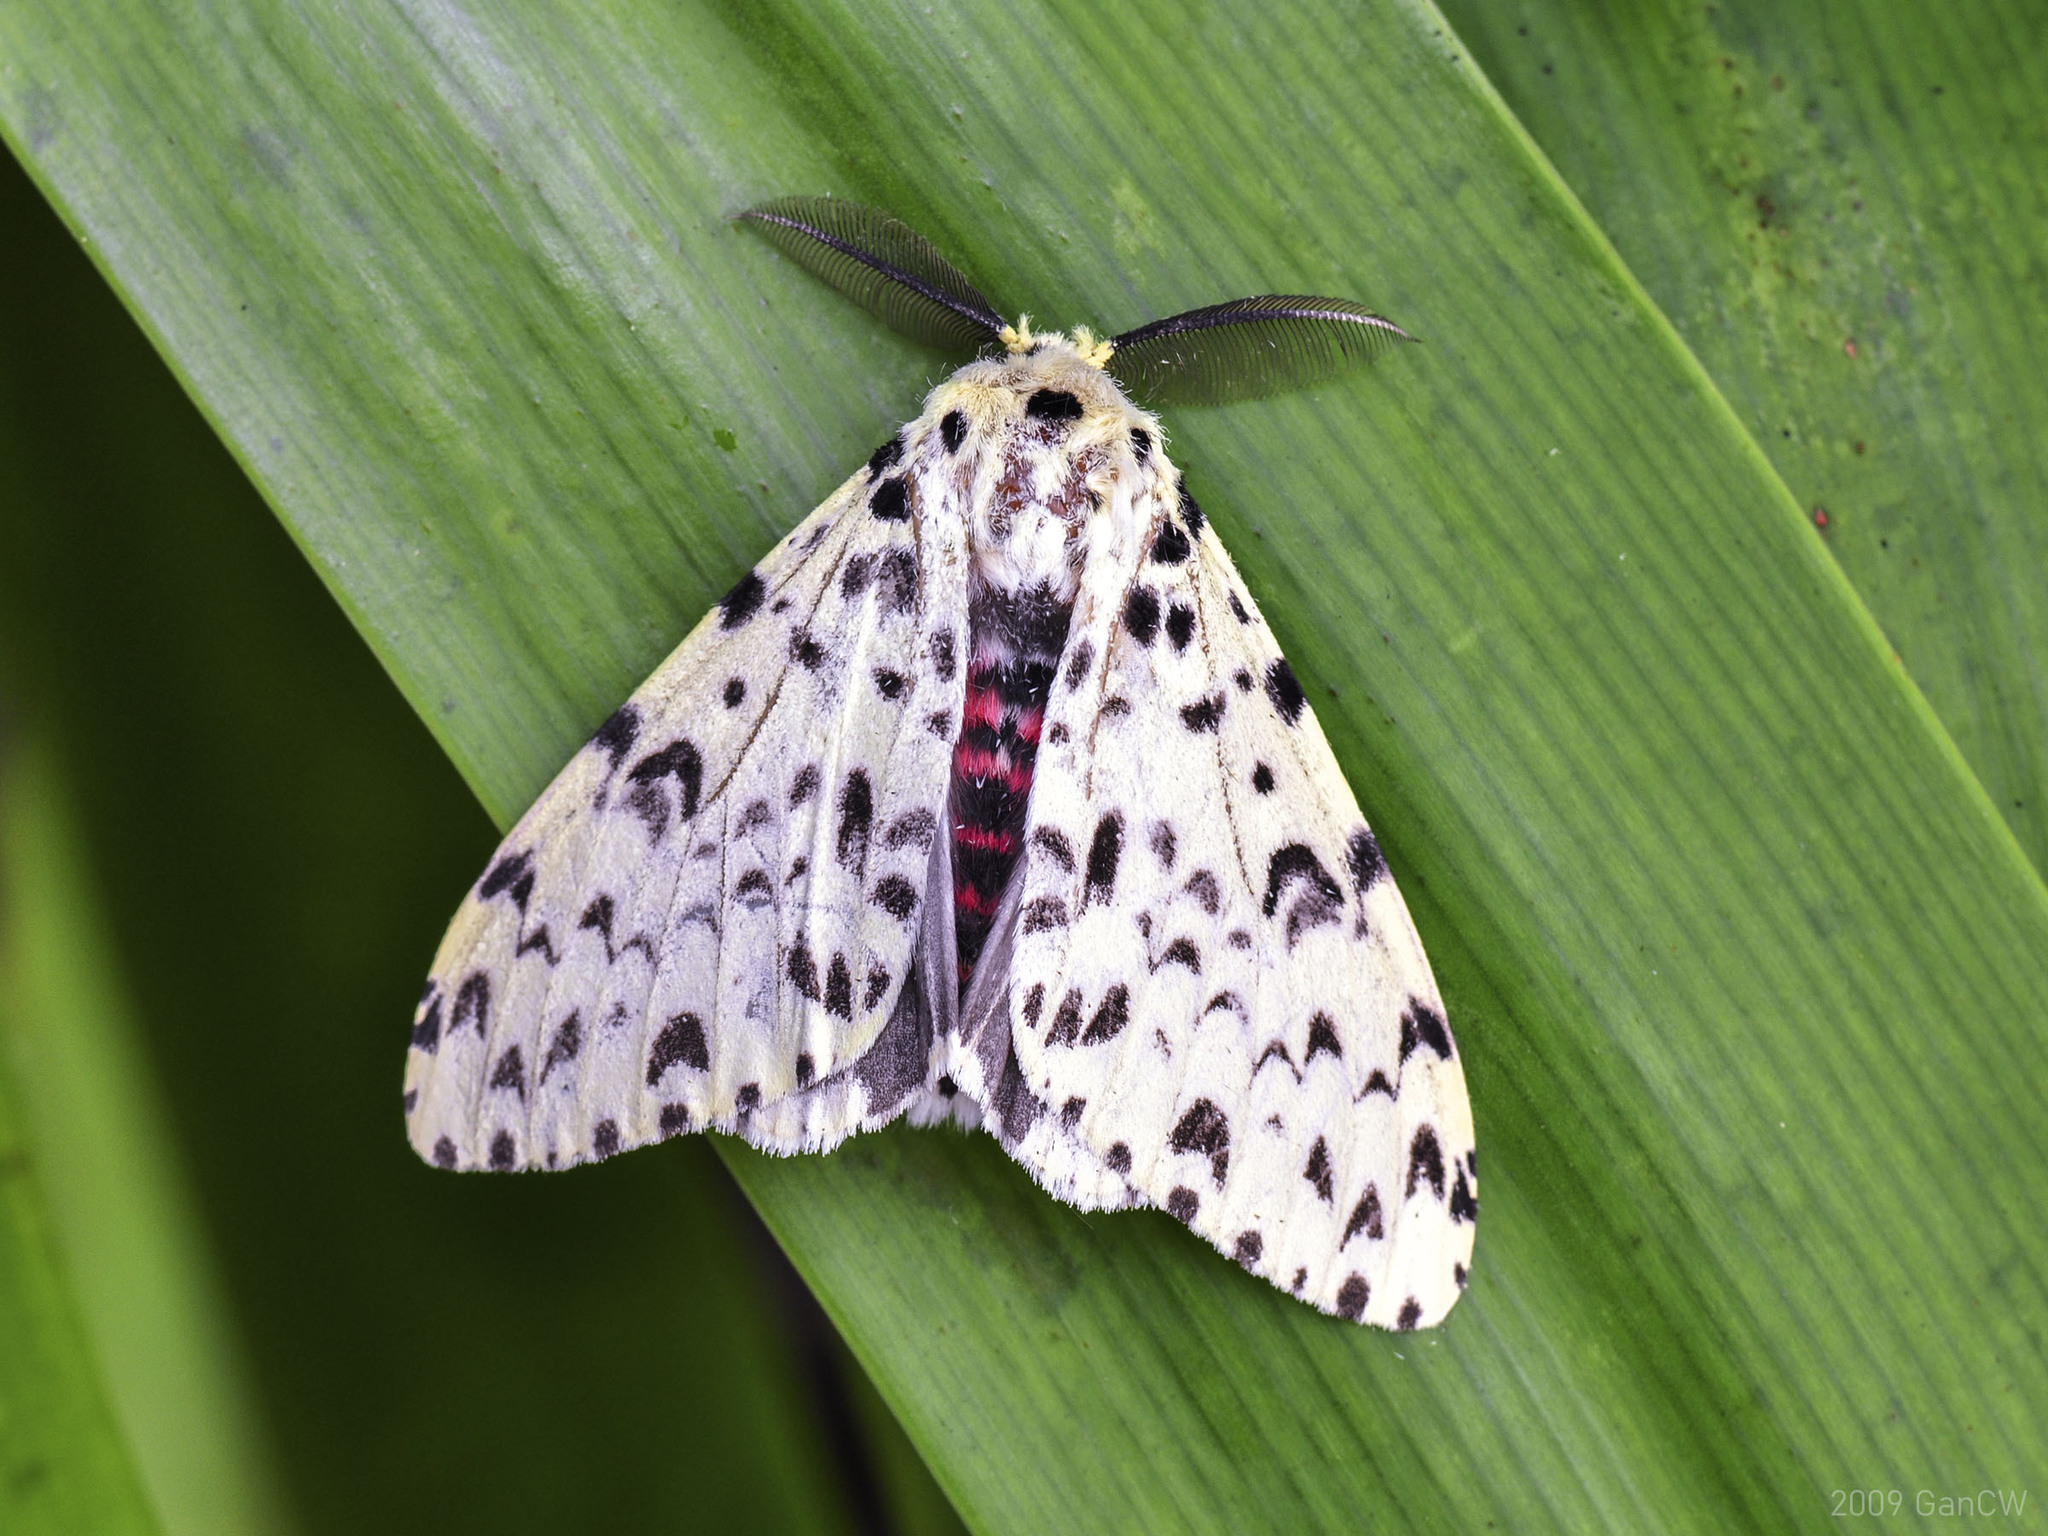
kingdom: Animalia
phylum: Arthropoda
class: Insecta
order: Lepidoptera
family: Erebidae
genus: Lymantria
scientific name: Lymantria narindra
